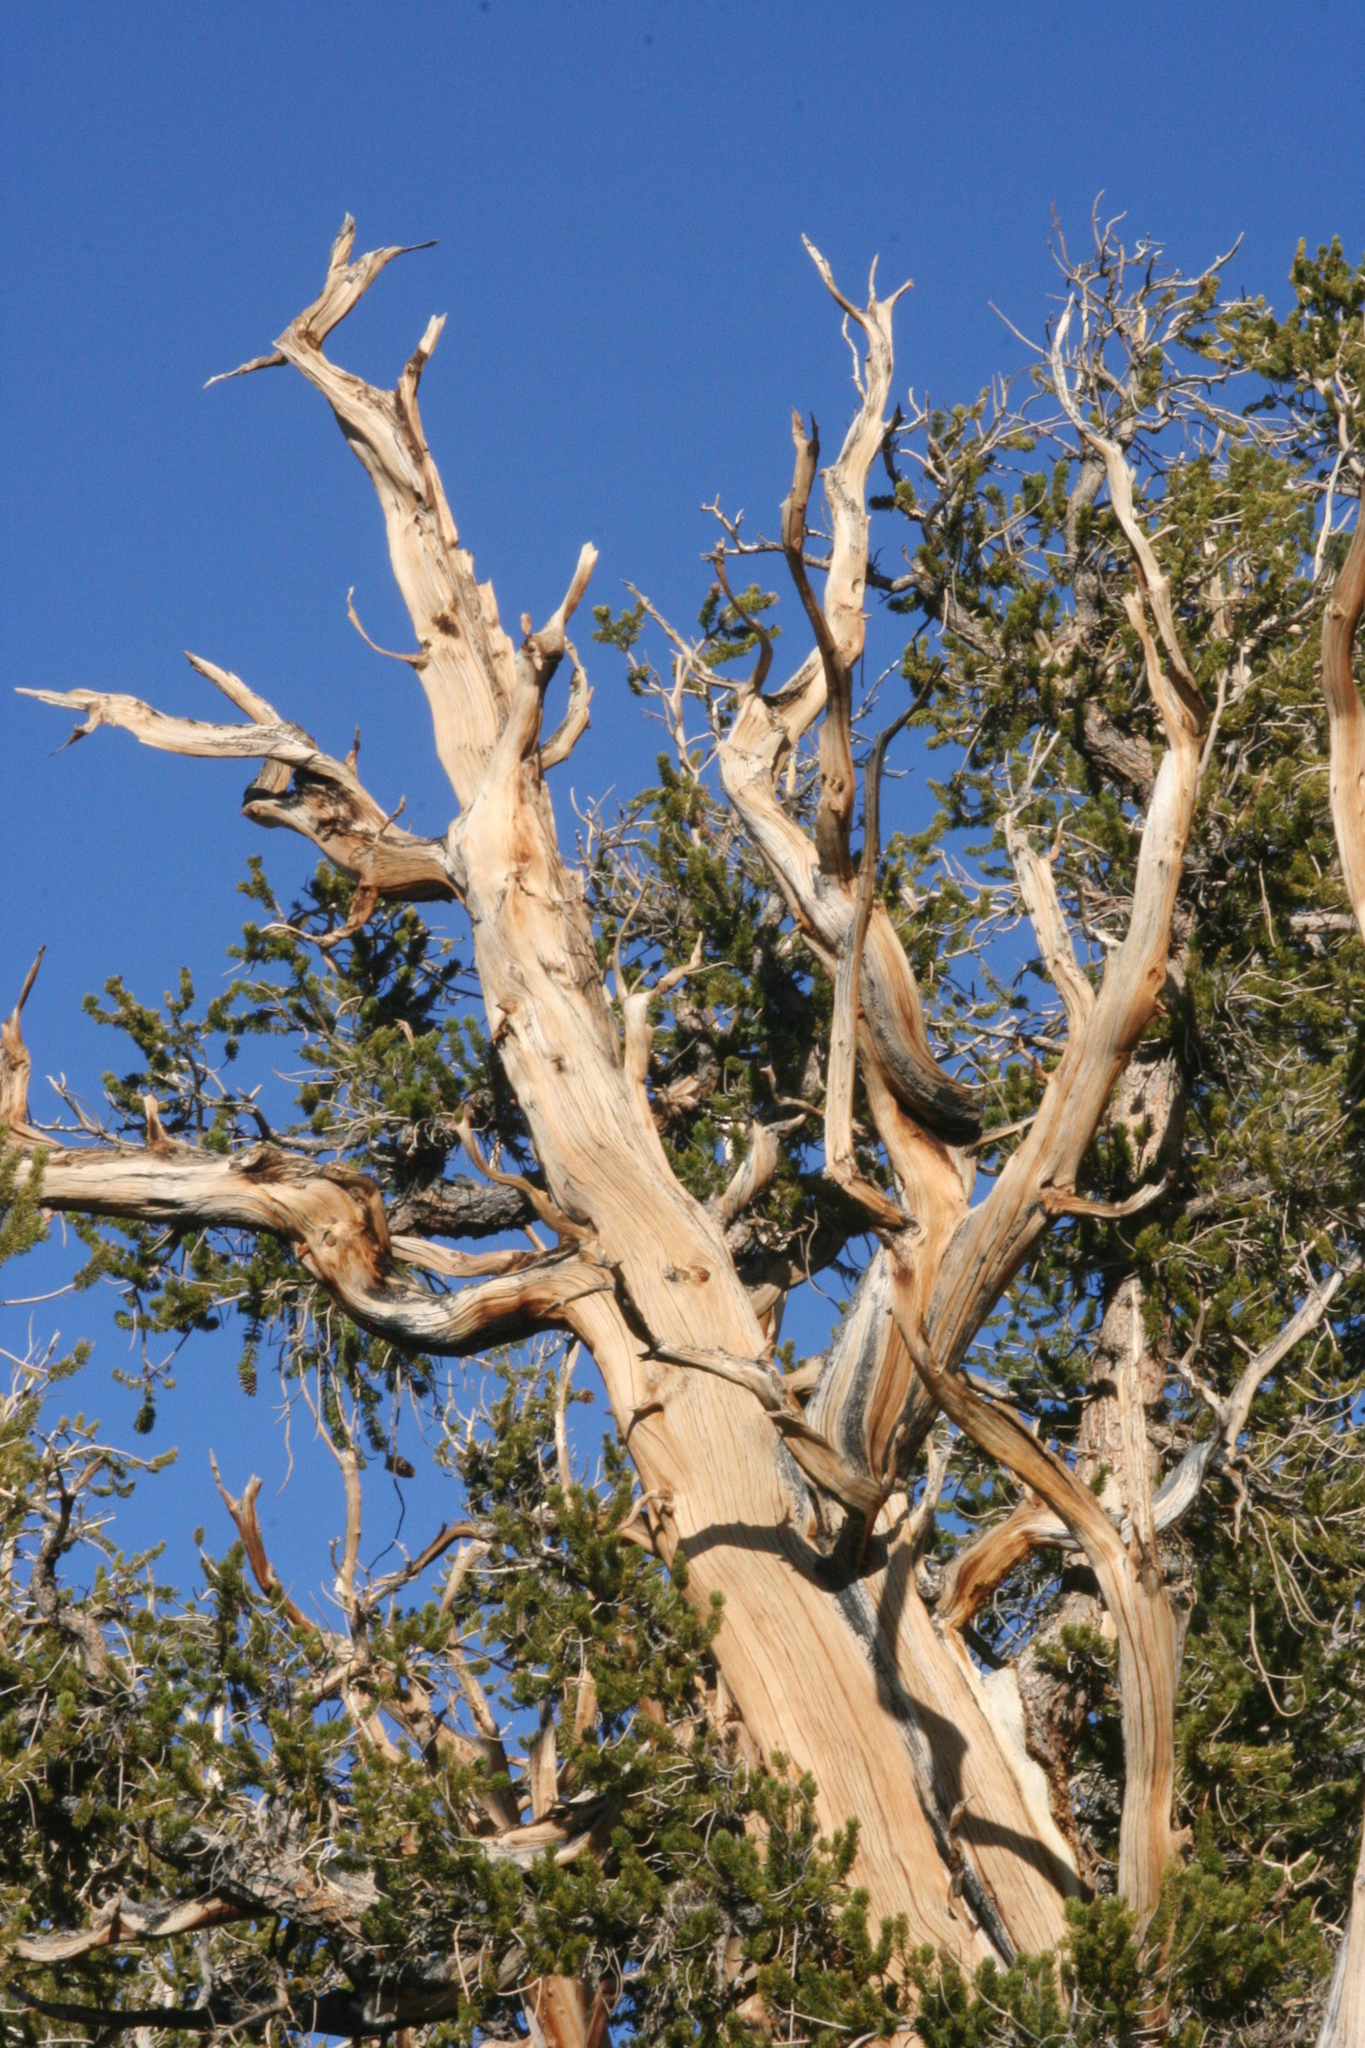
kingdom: Plantae
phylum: Tracheophyta
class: Pinopsida
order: Pinales
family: Pinaceae
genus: Pinus
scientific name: Pinus longaeva
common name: Intermountain bristlecone pine
